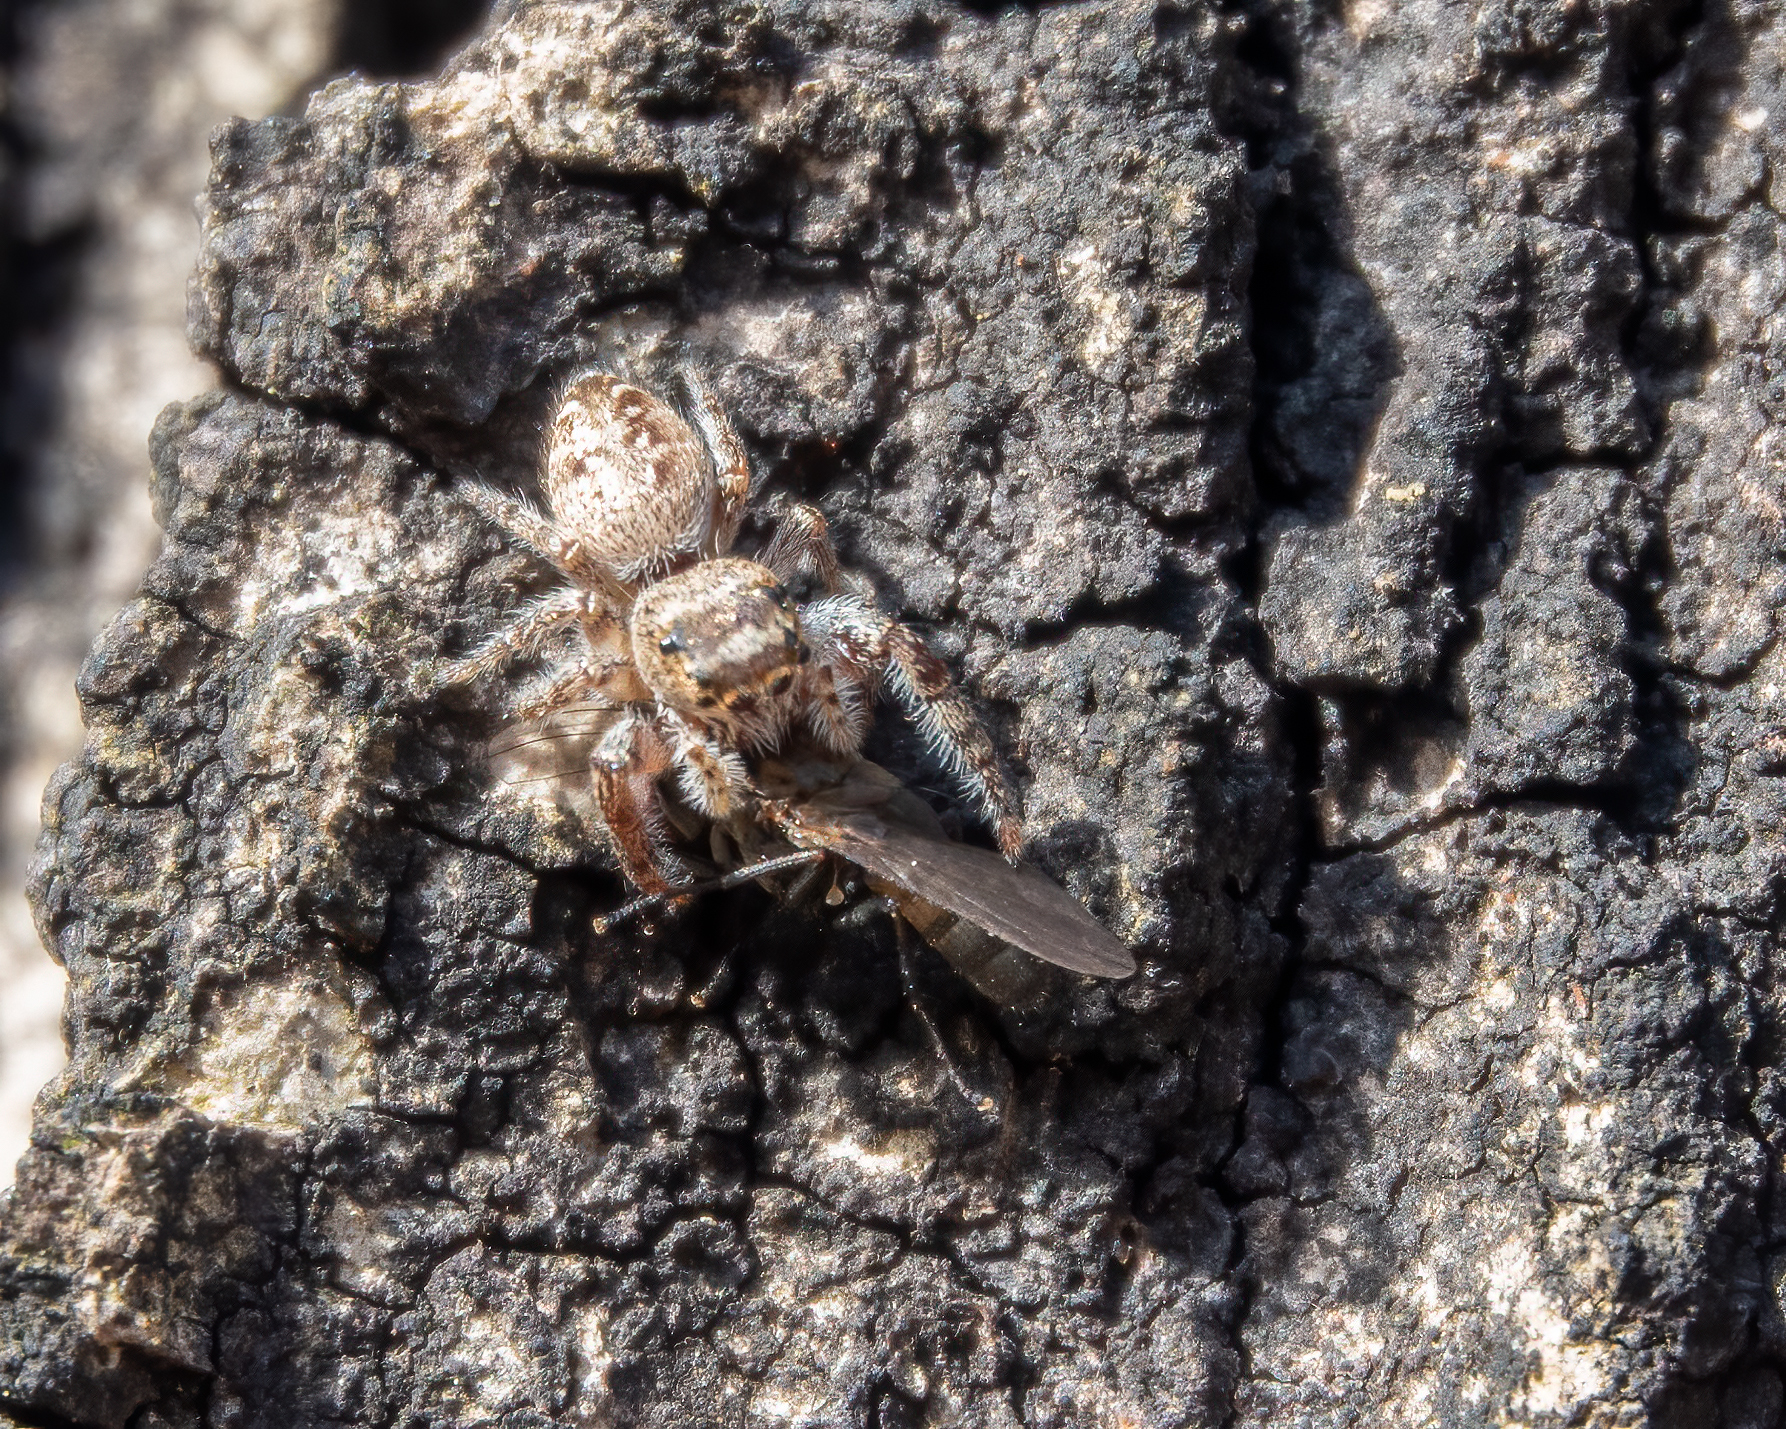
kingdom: Animalia
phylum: Arthropoda
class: Arachnida
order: Araneae
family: Salticidae
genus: Eris
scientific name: Eris militaris
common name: Bronze jumper
